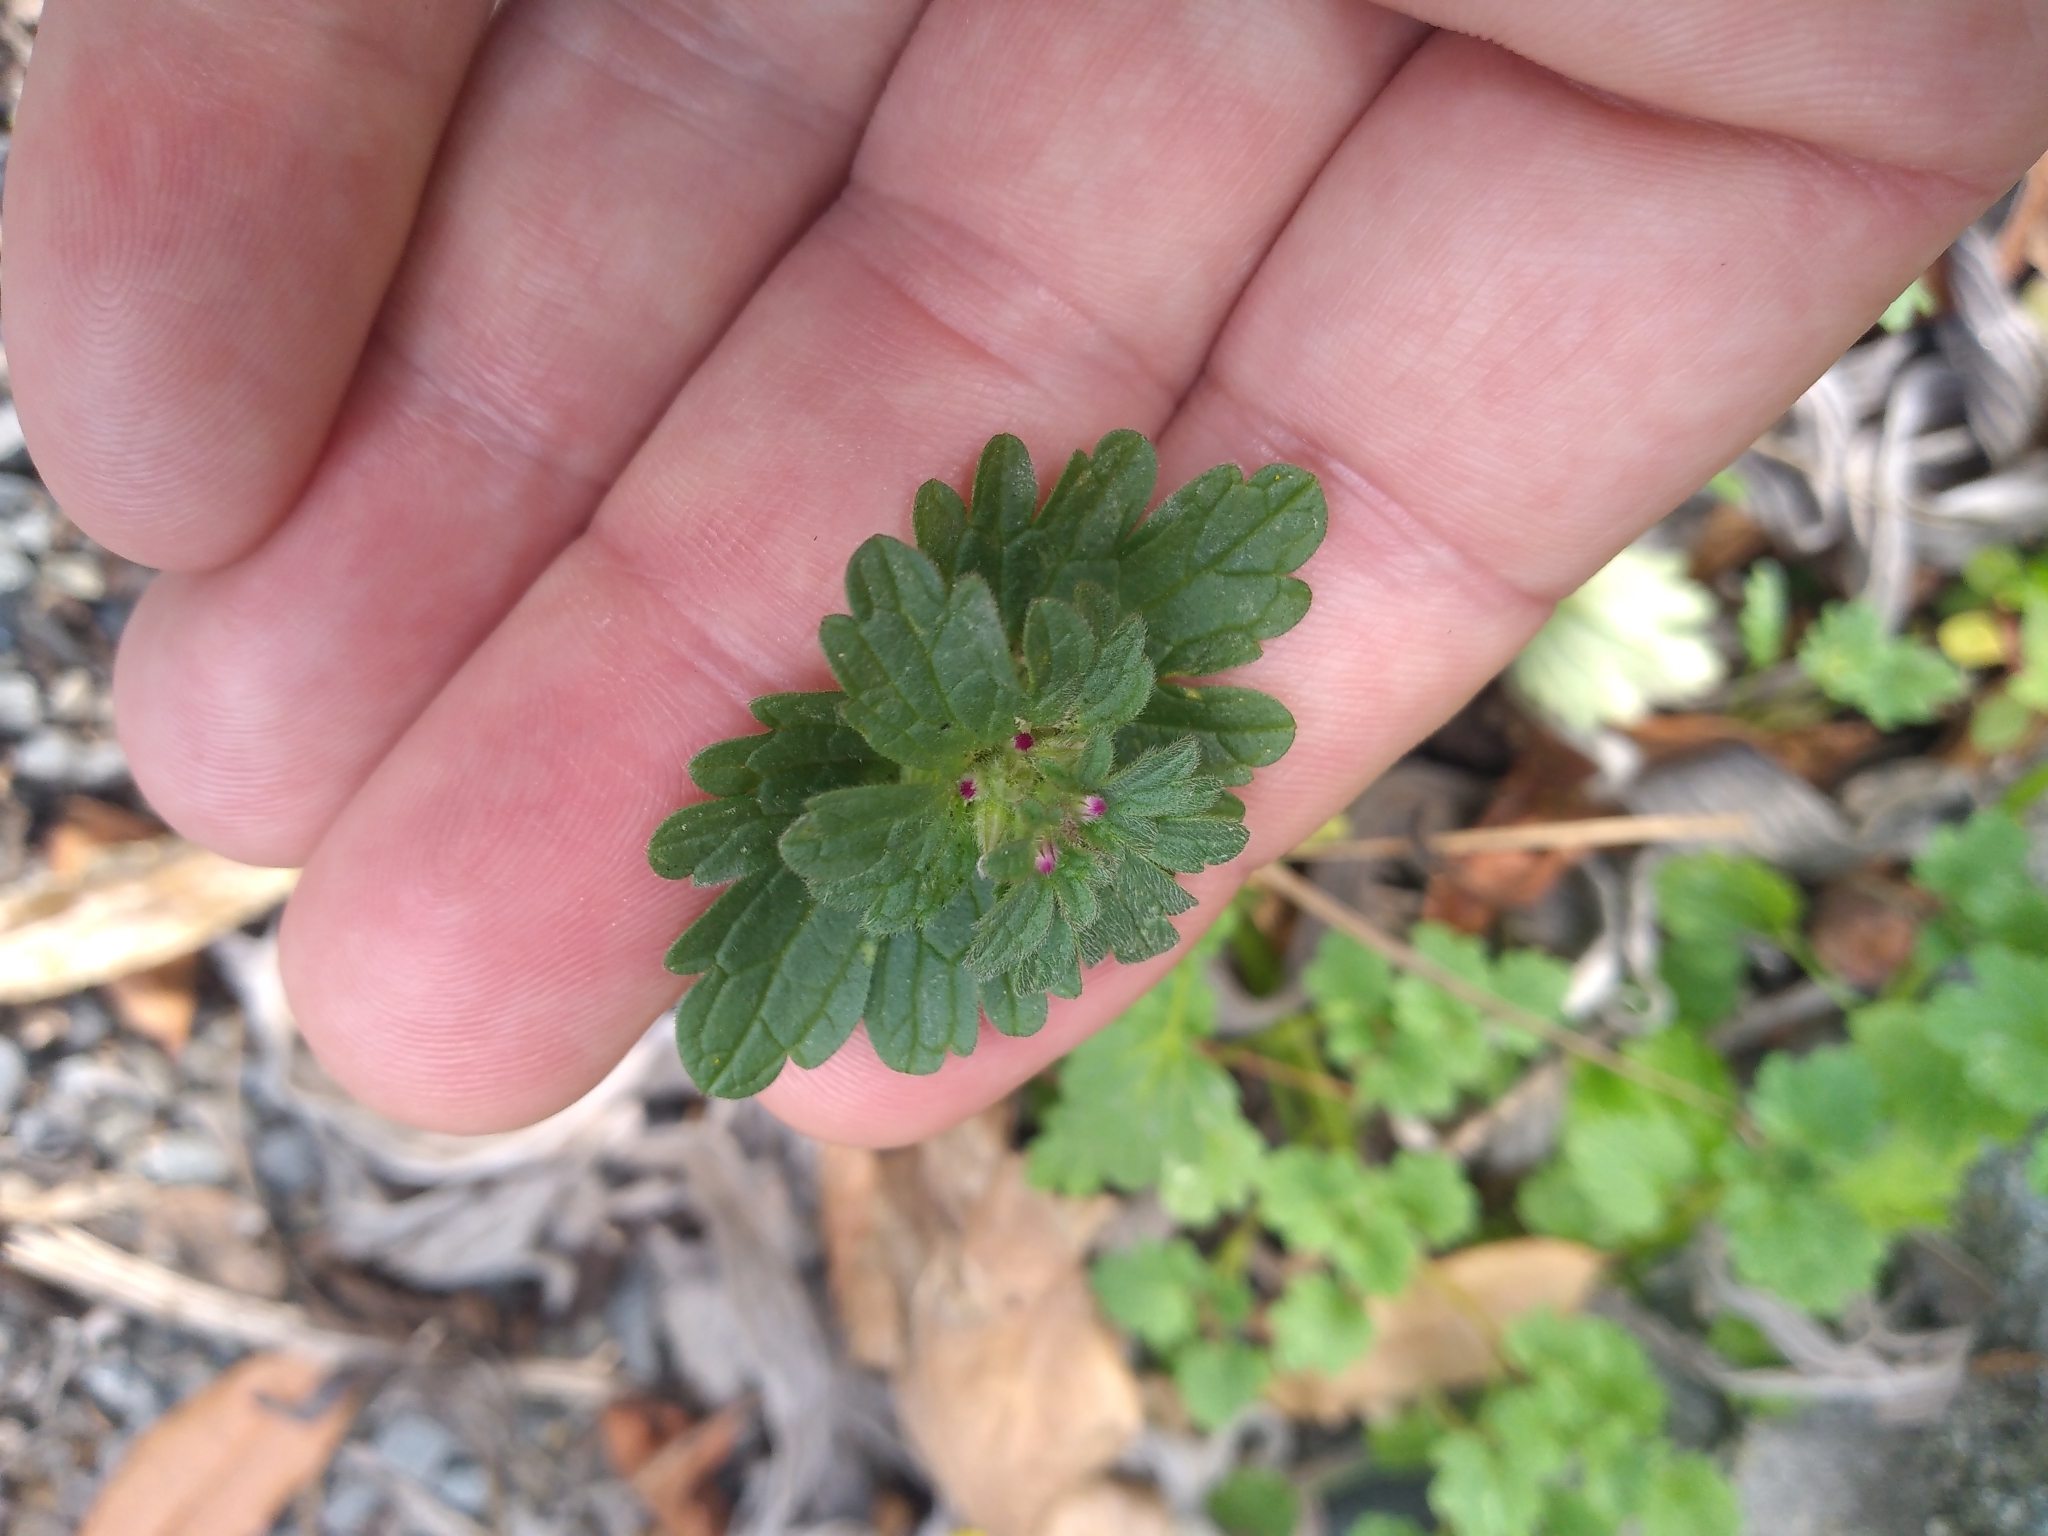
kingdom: Plantae
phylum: Tracheophyta
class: Magnoliopsida
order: Lamiales
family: Lamiaceae
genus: Lamium
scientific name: Lamium amplexicaule
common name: Henbit dead-nettle
